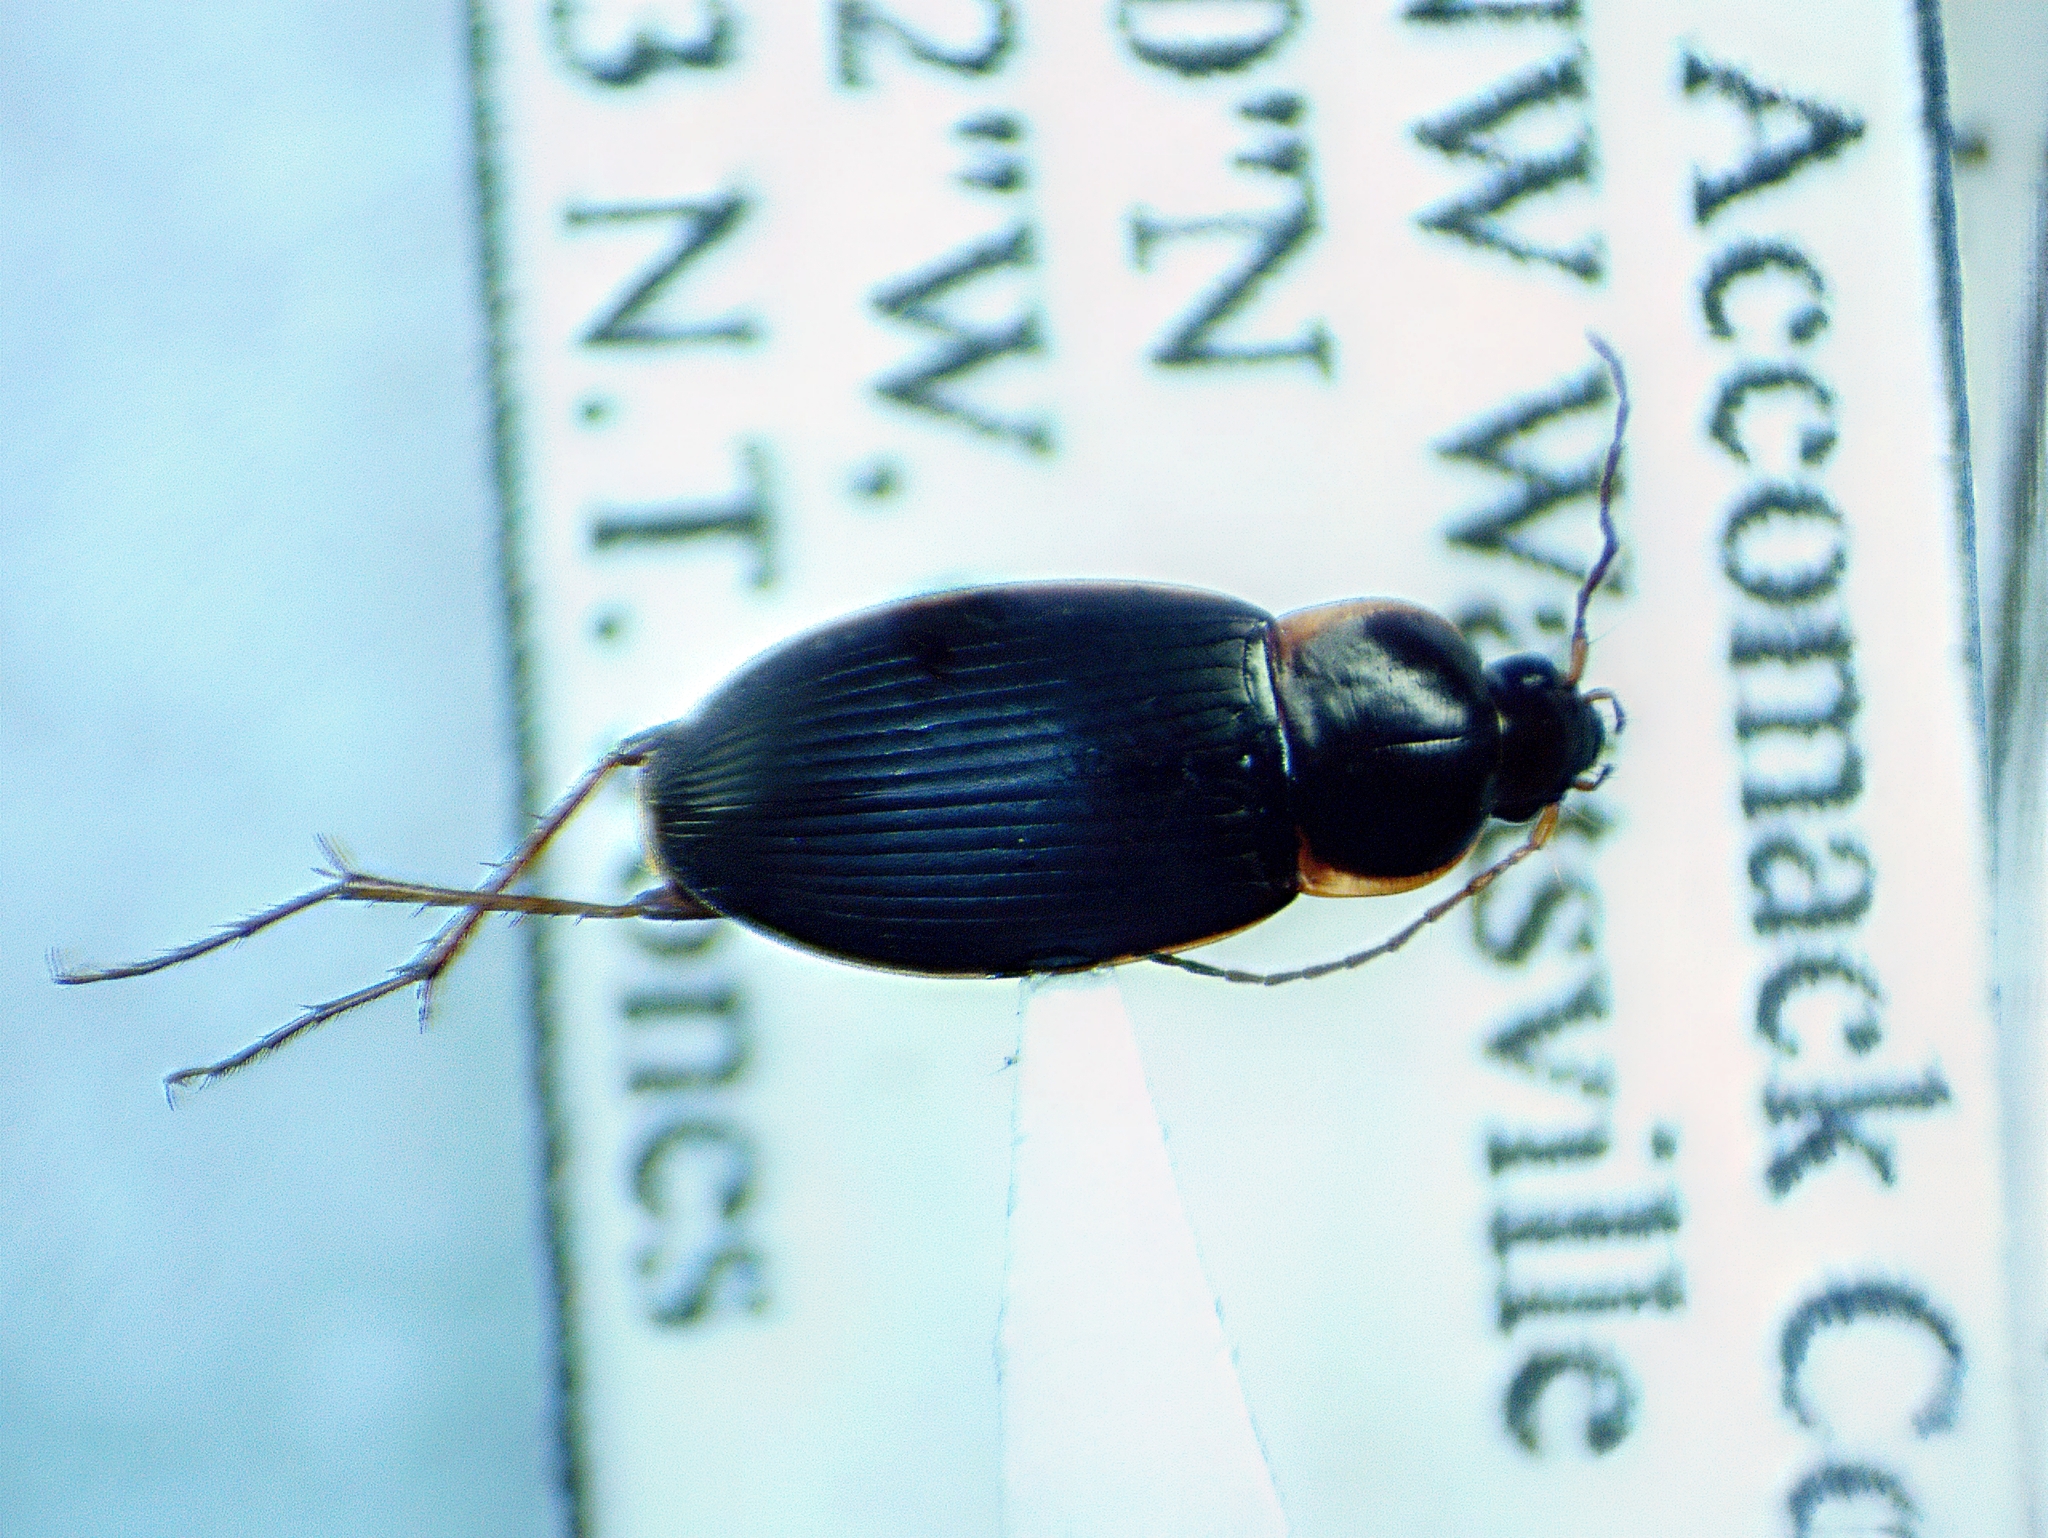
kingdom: Animalia
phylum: Arthropoda
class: Insecta
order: Coleoptera
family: Carabidae
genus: Calathus
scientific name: Calathus opaculus
